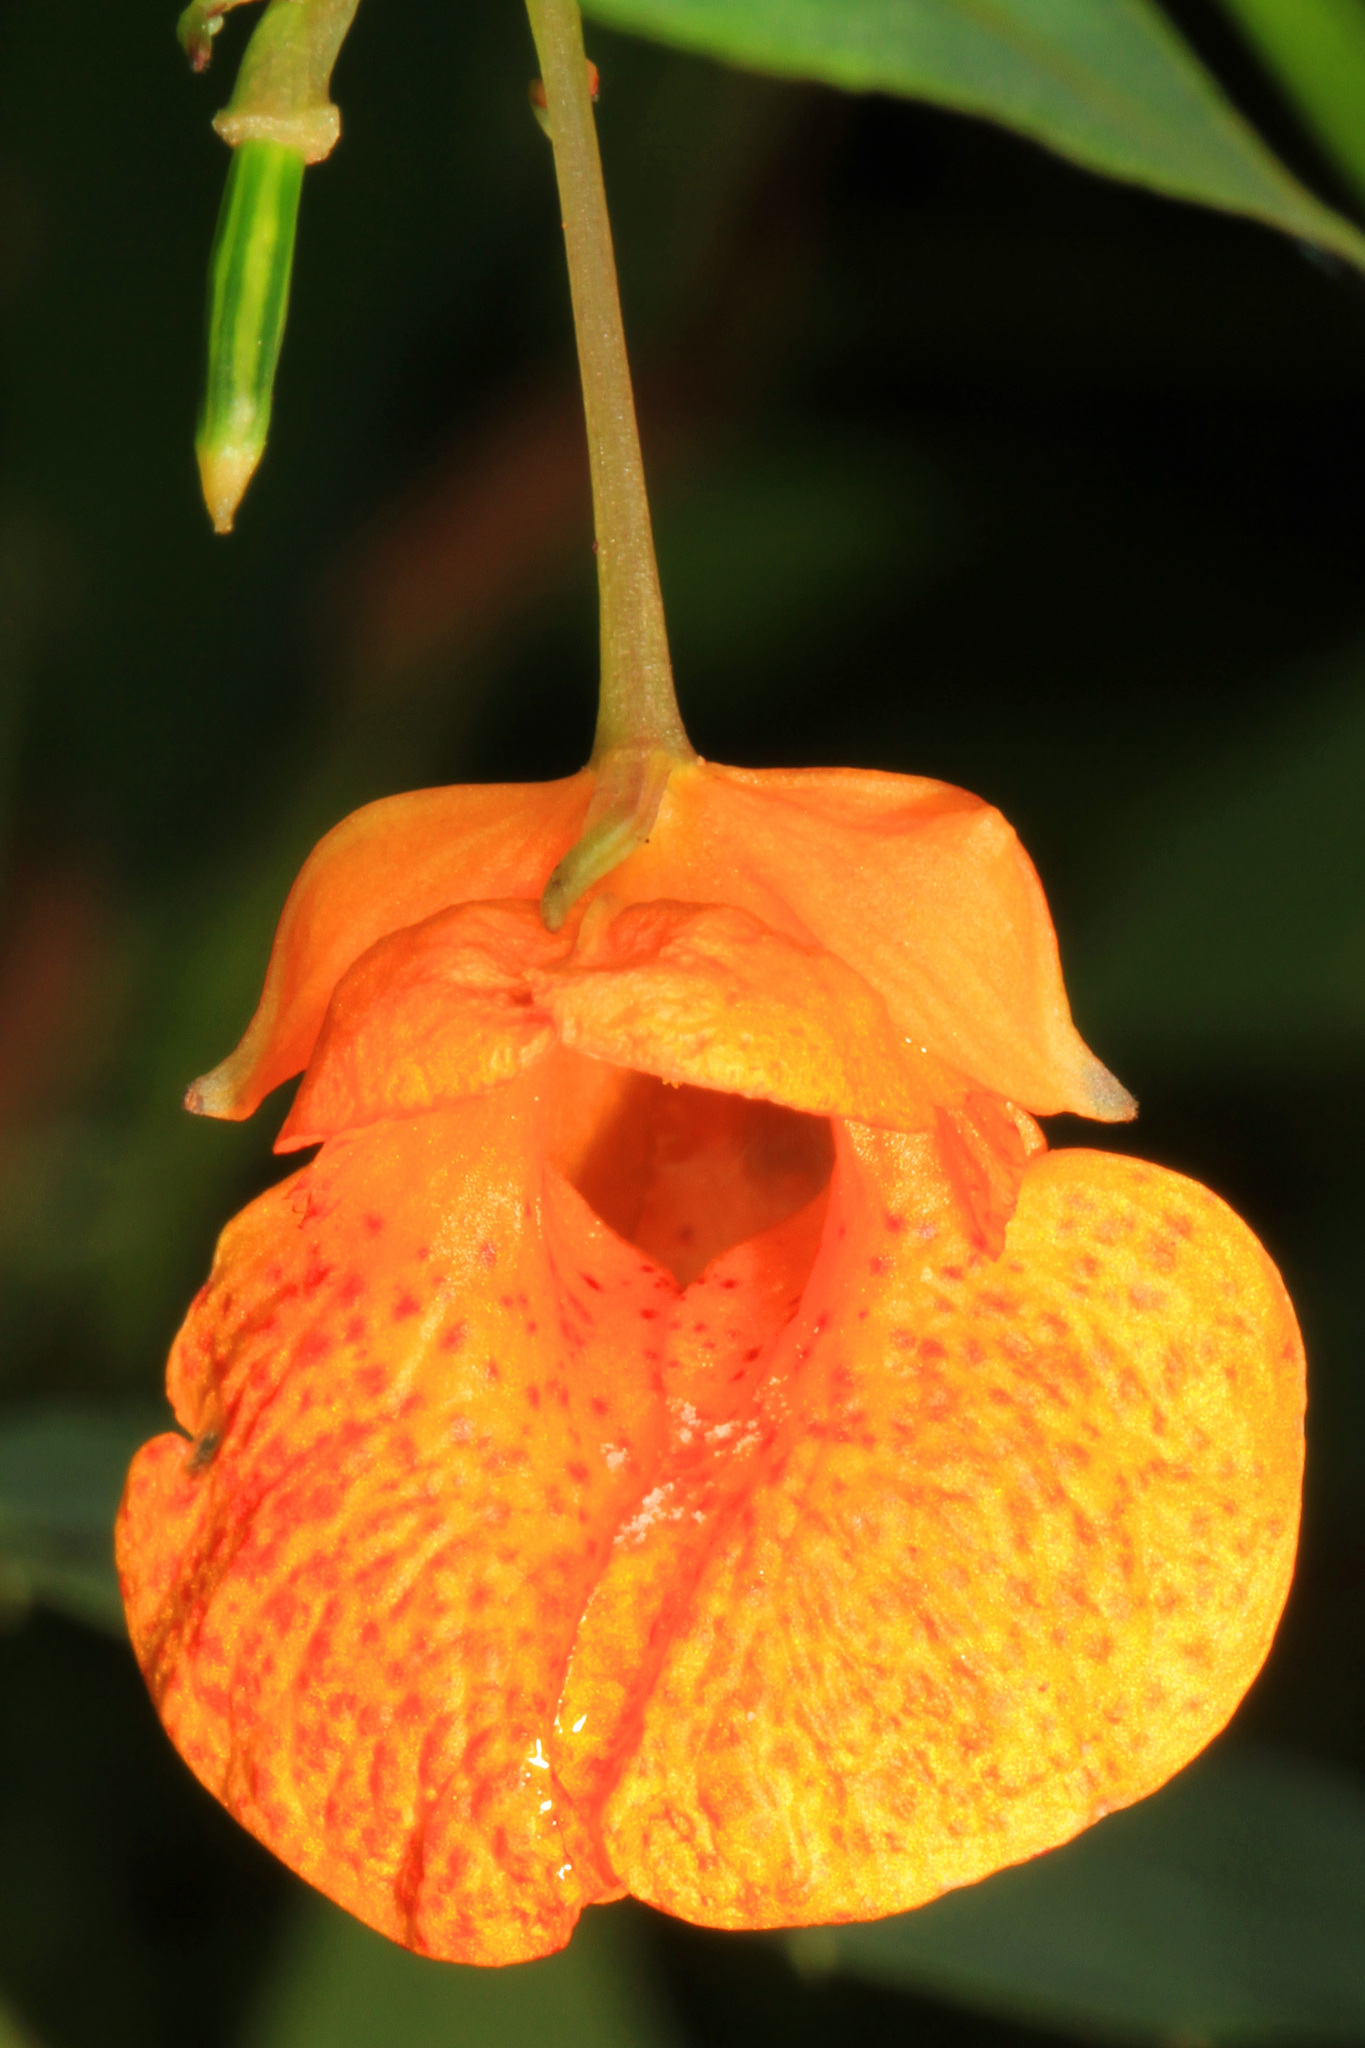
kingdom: Plantae
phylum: Tracheophyta
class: Magnoliopsida
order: Ericales
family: Balsaminaceae
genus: Impatiens
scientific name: Impatiens capensis
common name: Orange balsam
